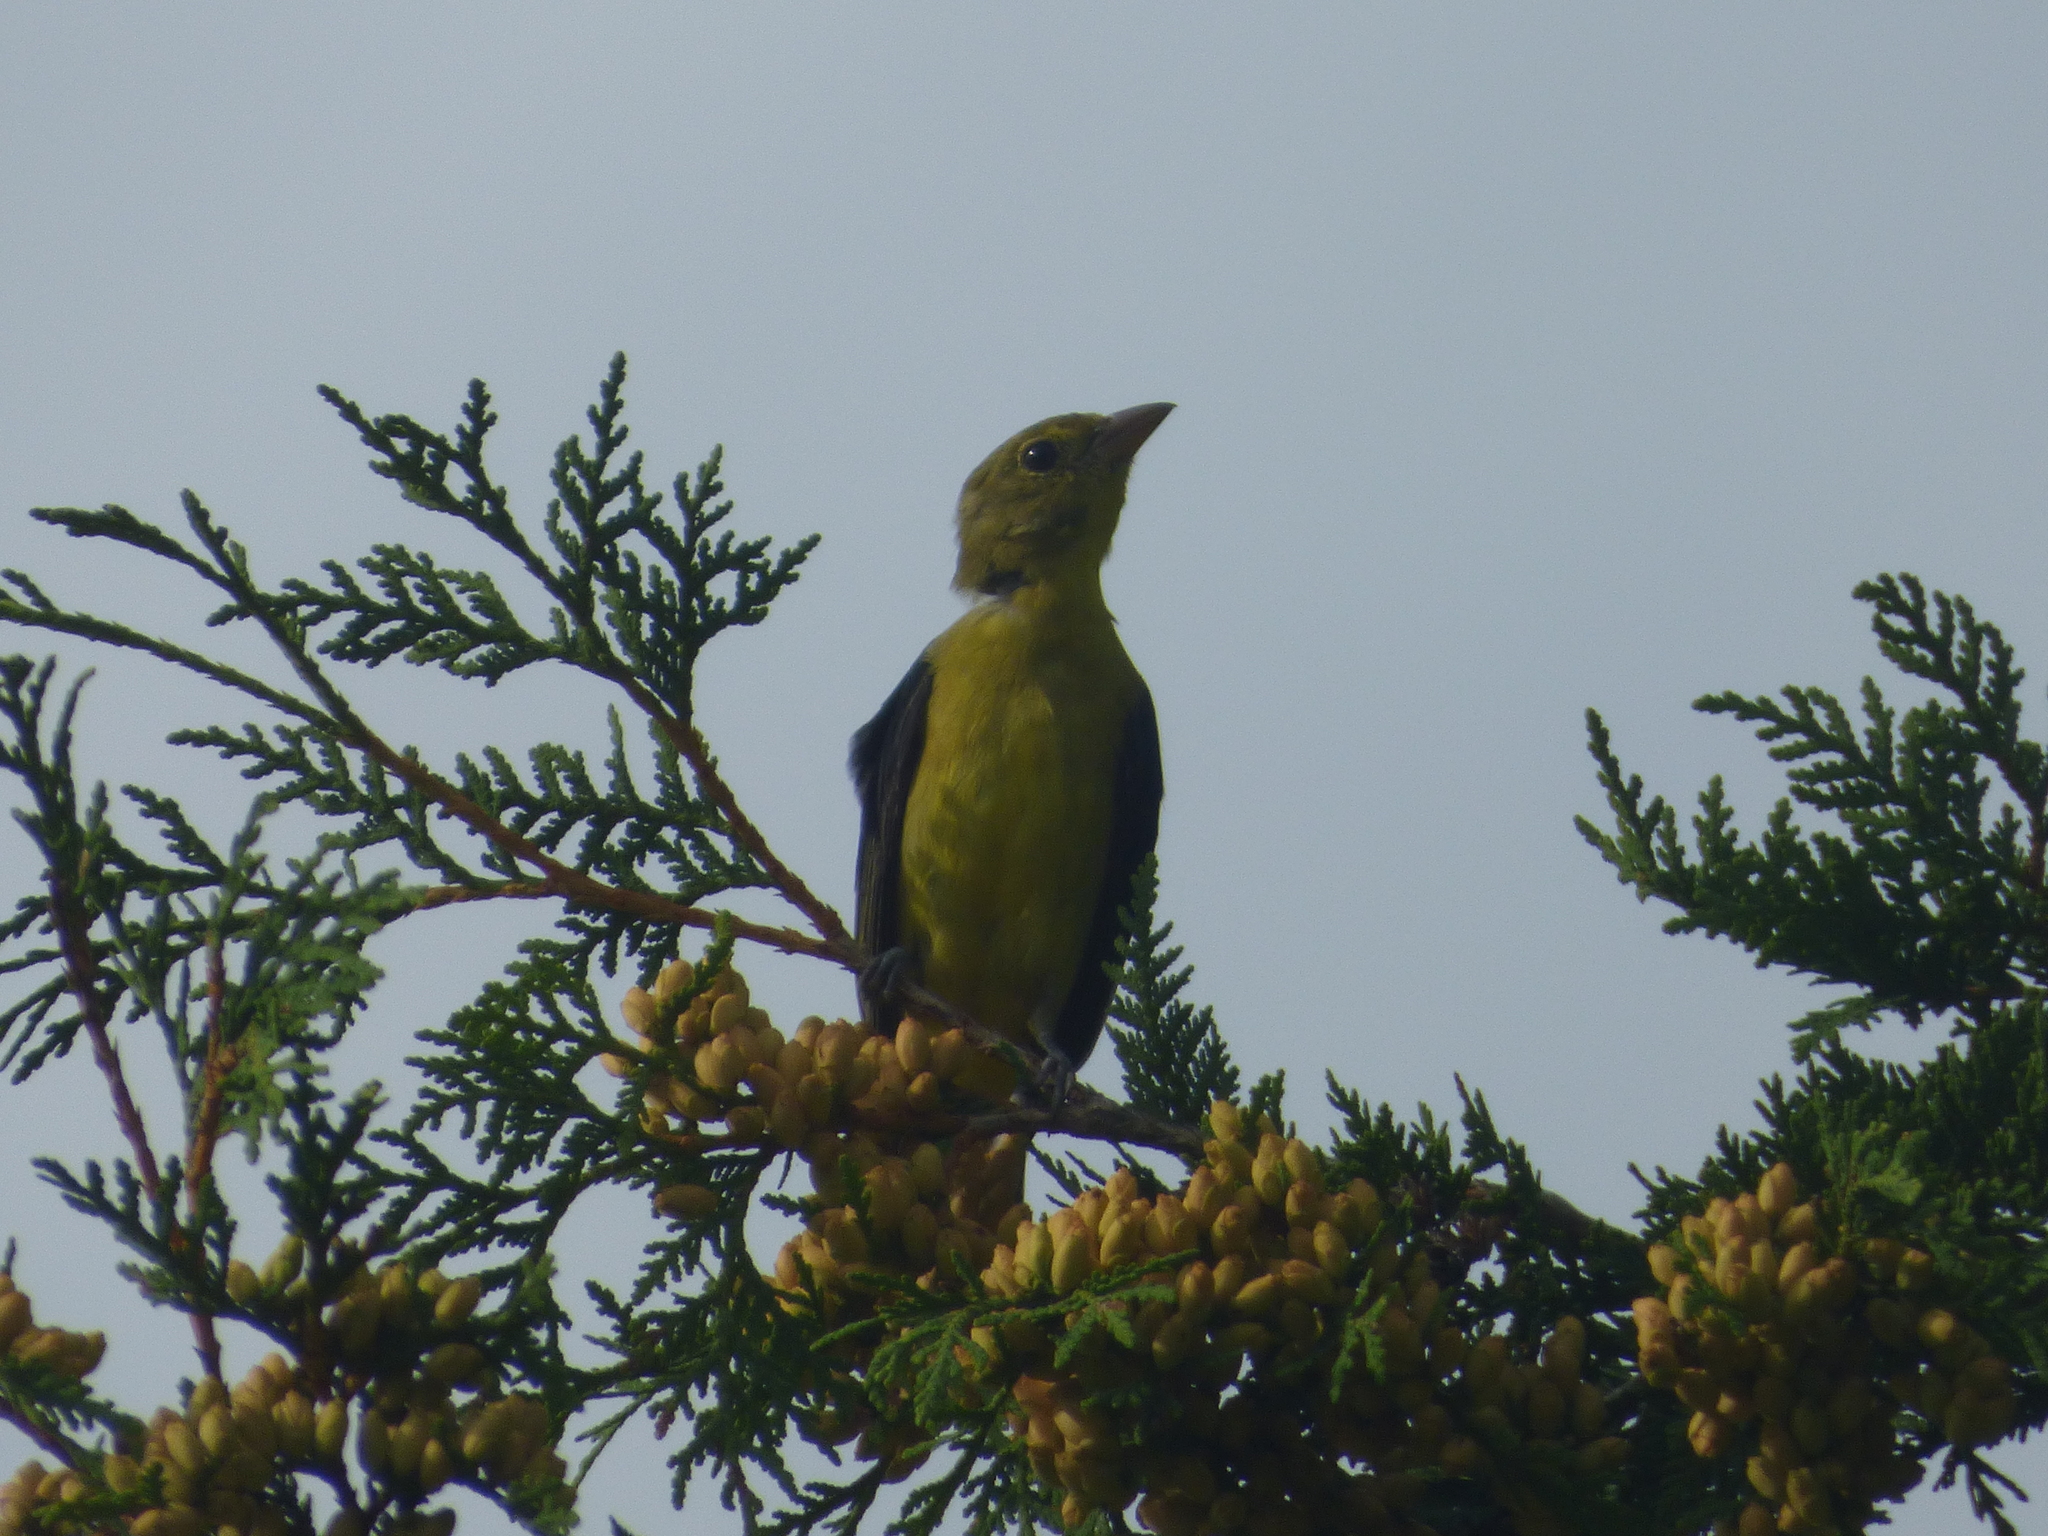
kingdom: Animalia
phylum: Chordata
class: Aves
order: Passeriformes
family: Cardinalidae
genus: Piranga
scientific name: Piranga olivacea
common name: Scarlet tanager
